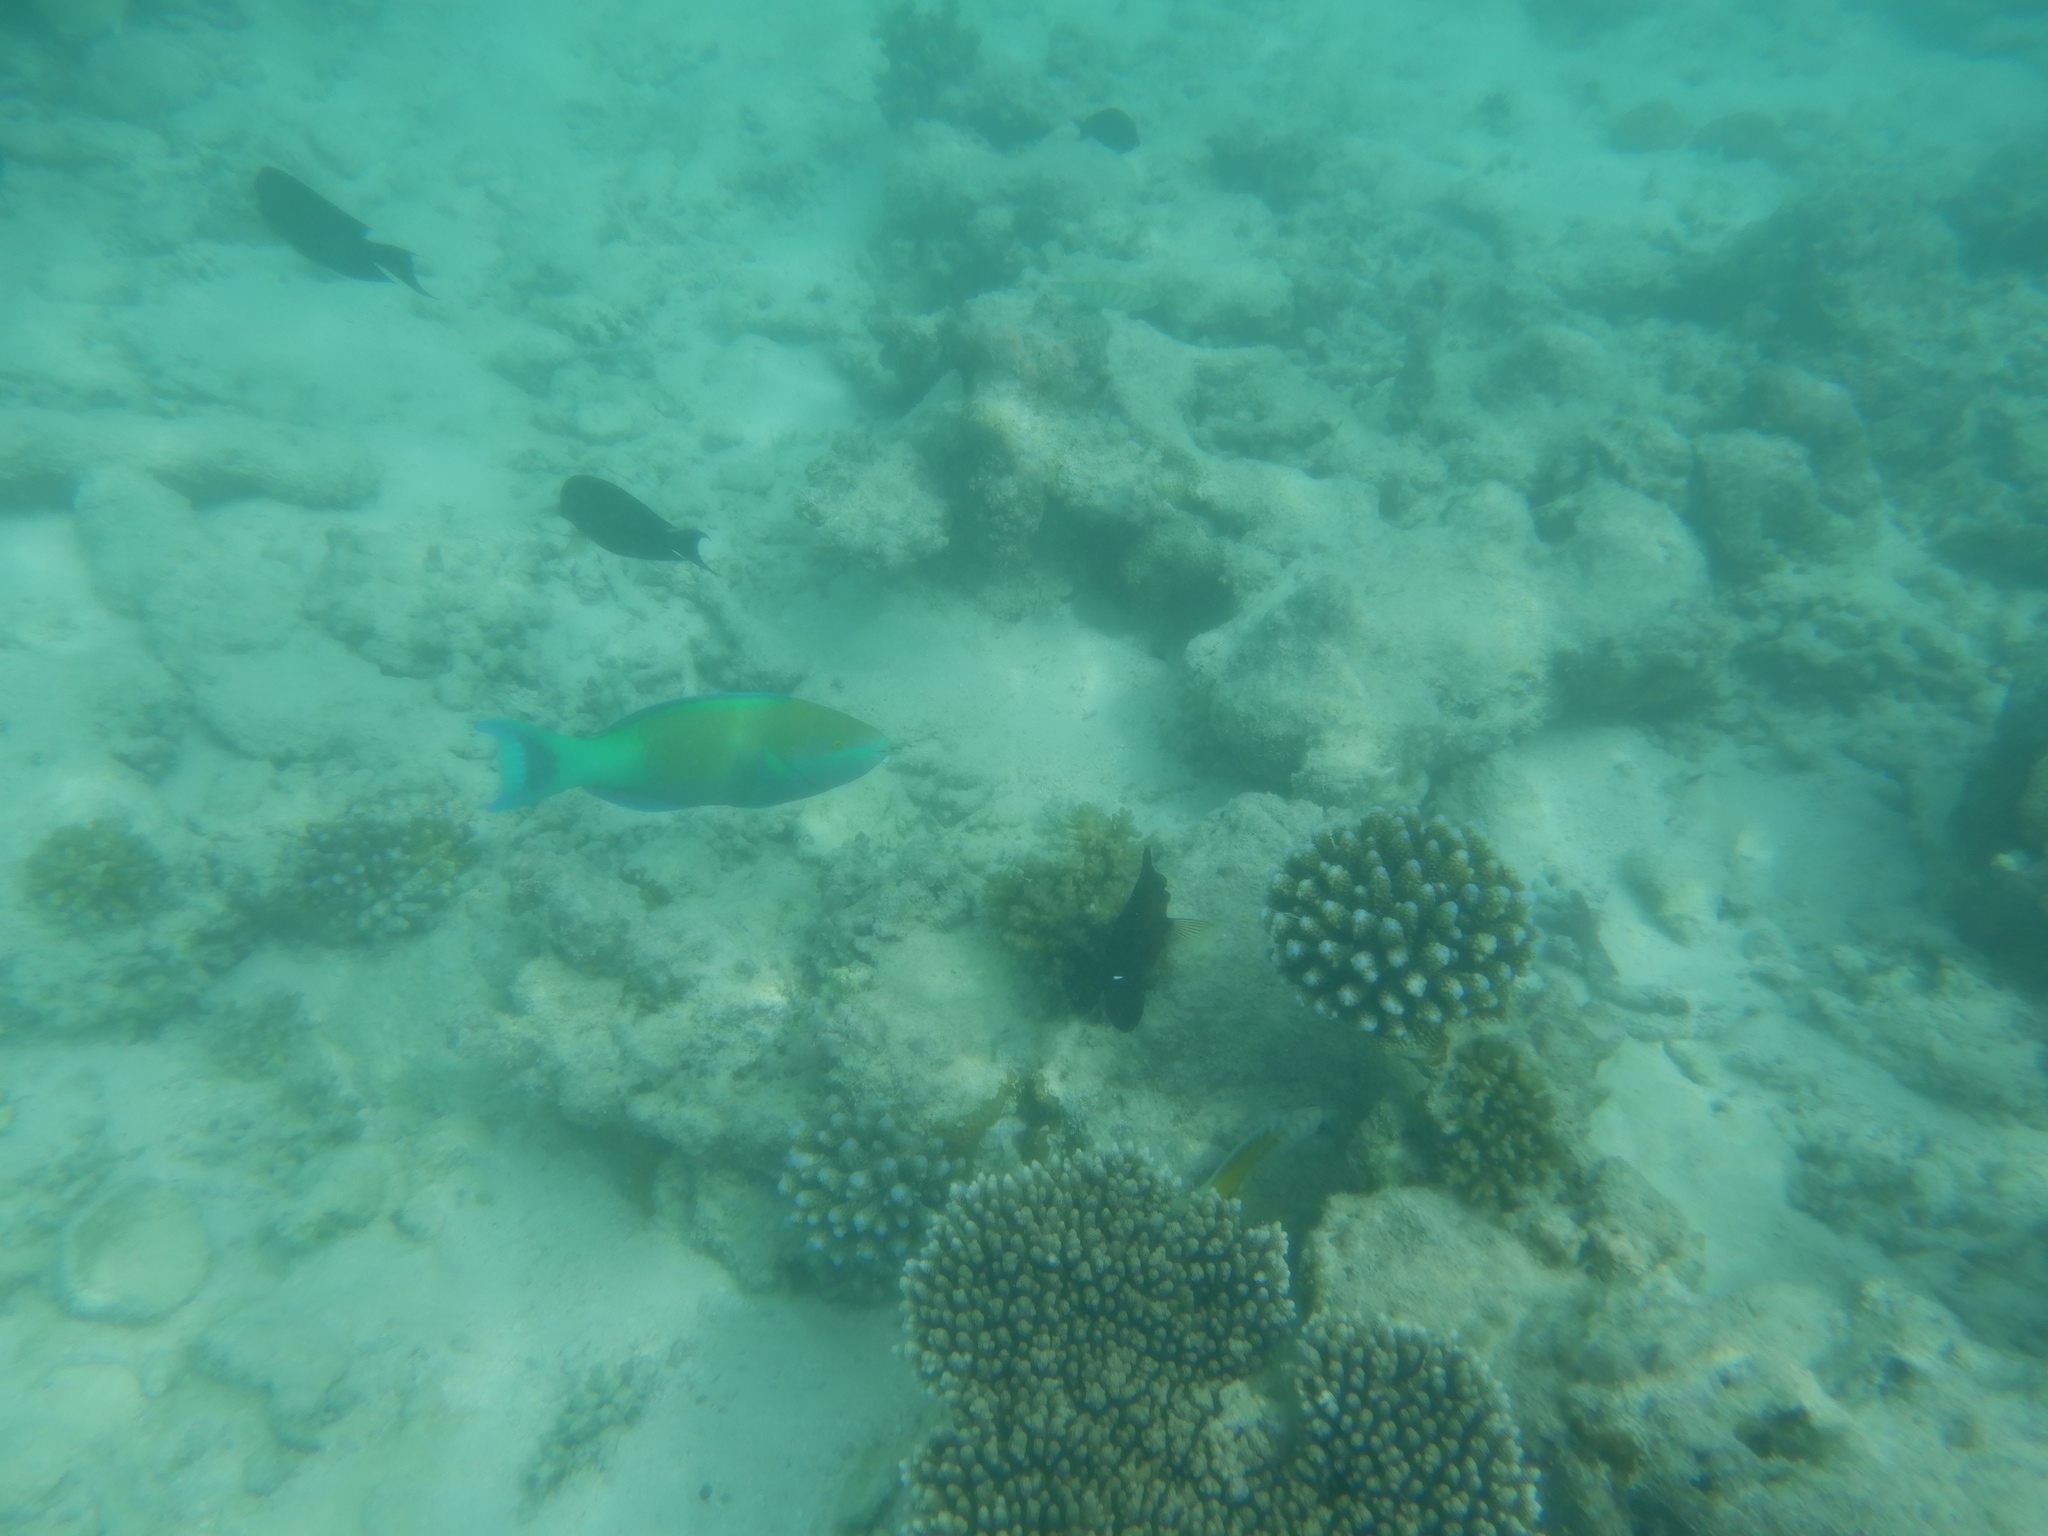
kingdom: Animalia
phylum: Chordata
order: Perciformes
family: Scaridae
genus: Scarus
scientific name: Scarus frenatus
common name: Bridled parrotfish
